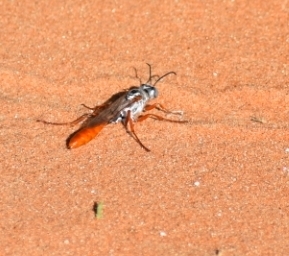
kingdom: Animalia
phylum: Arthropoda
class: Insecta
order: Hymenoptera
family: Sphecidae
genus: Parapsammophila
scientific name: Parapsammophila turanica
